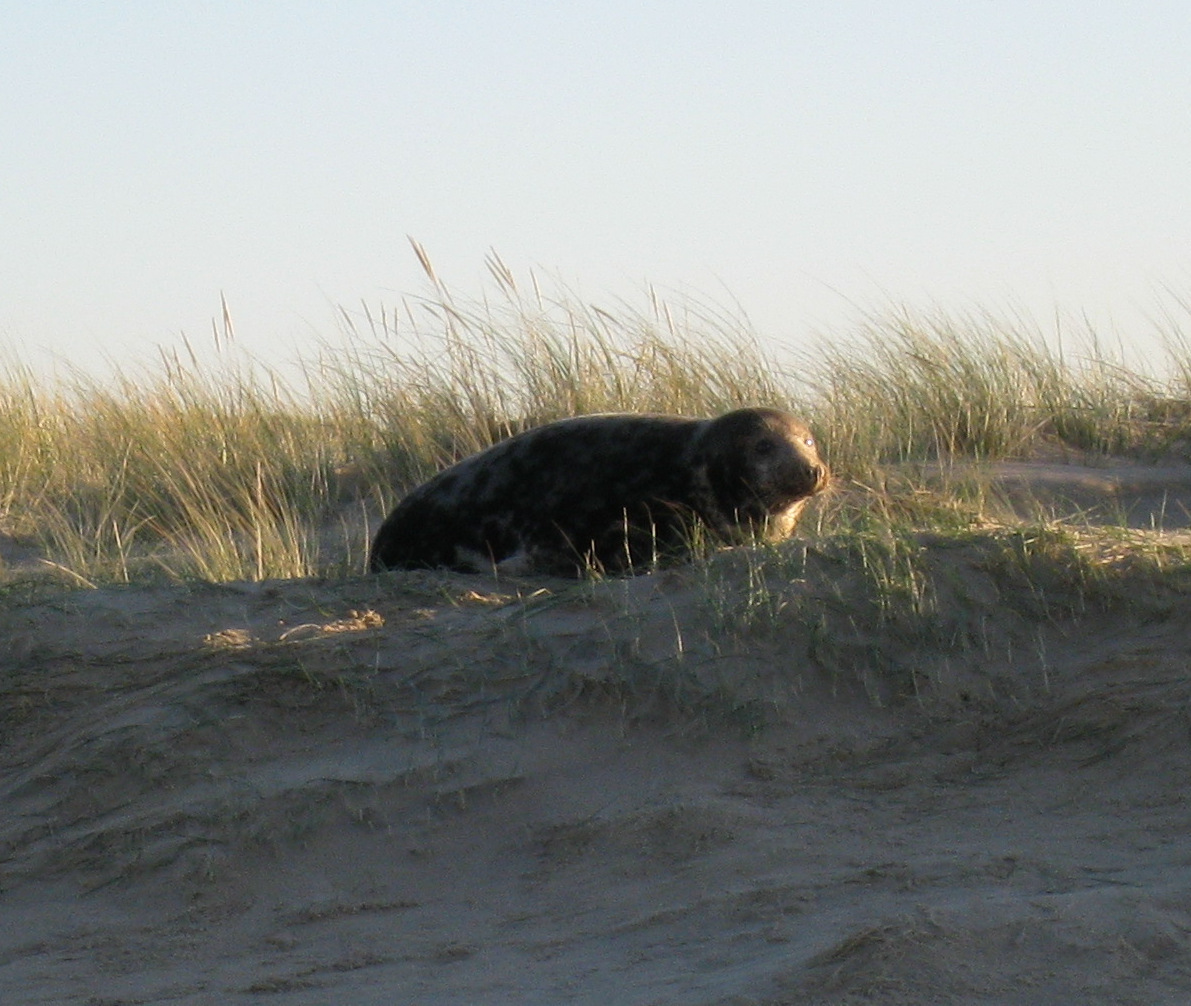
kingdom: Animalia
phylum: Chordata
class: Mammalia
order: Carnivora
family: Phocidae
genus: Halichoerus
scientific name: Halichoerus grypus
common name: Grey seal
